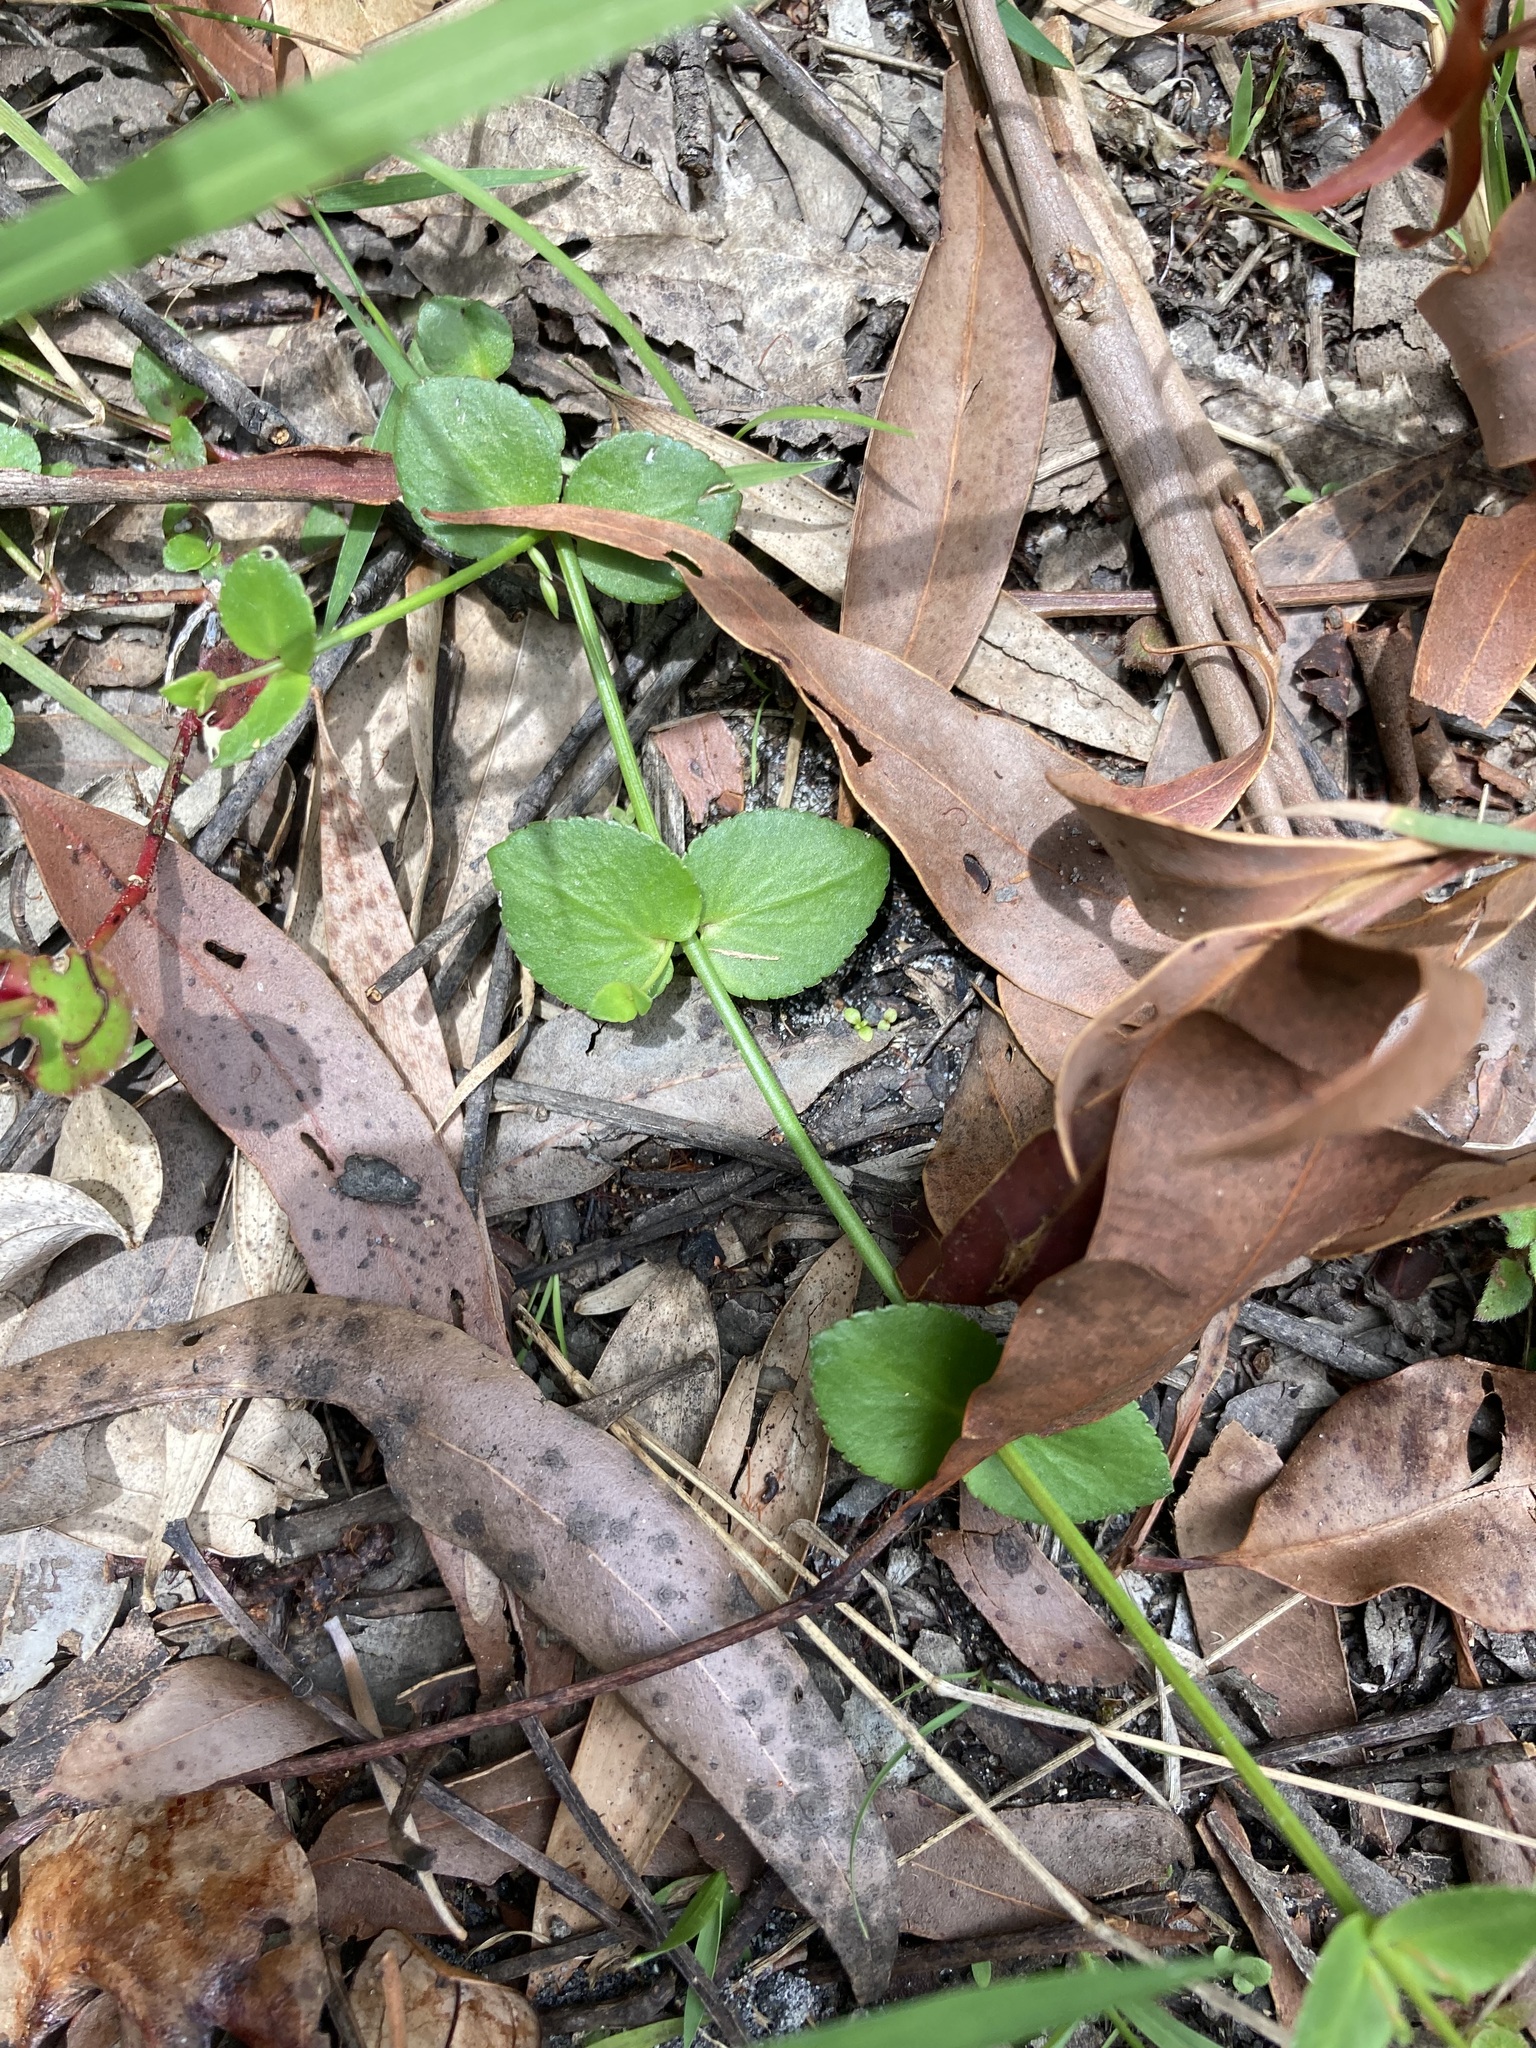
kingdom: Plantae
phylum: Tracheophyta
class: Magnoliopsida
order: Saxifragales
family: Haloragaceae
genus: Gonocarpus
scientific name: Gonocarpus micranthus
